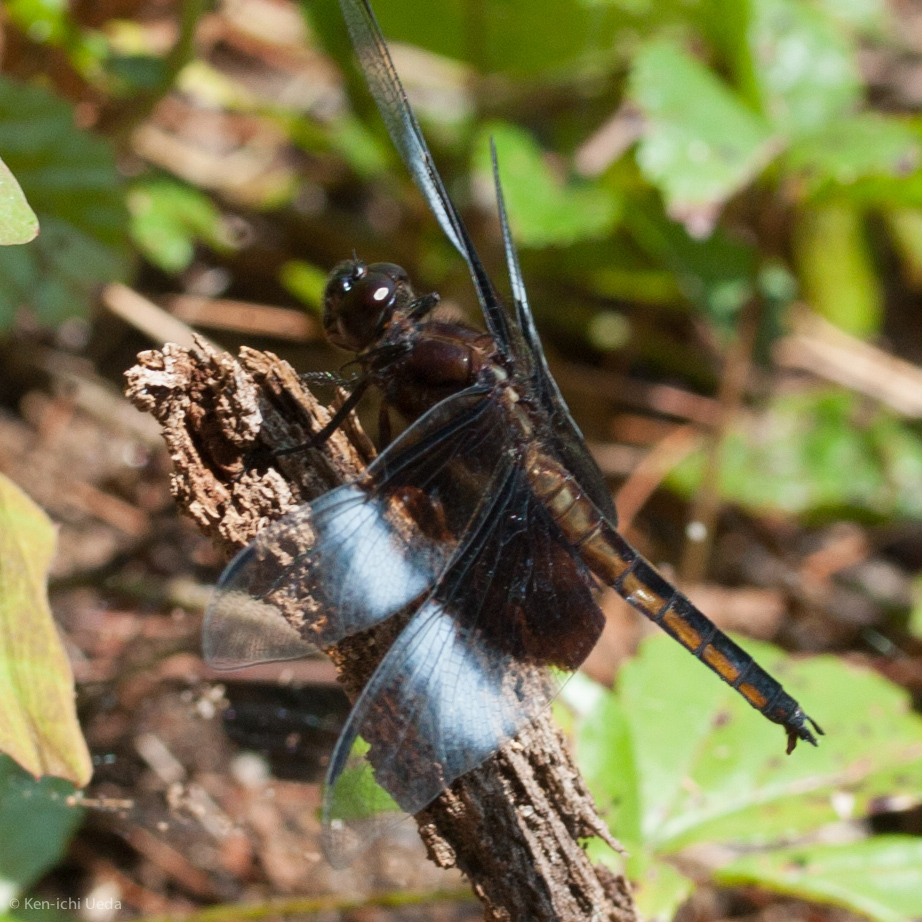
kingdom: Animalia
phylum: Arthropoda
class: Insecta
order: Odonata
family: Libellulidae
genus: Libellula
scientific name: Libellula luctuosa
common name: Widow skimmer
